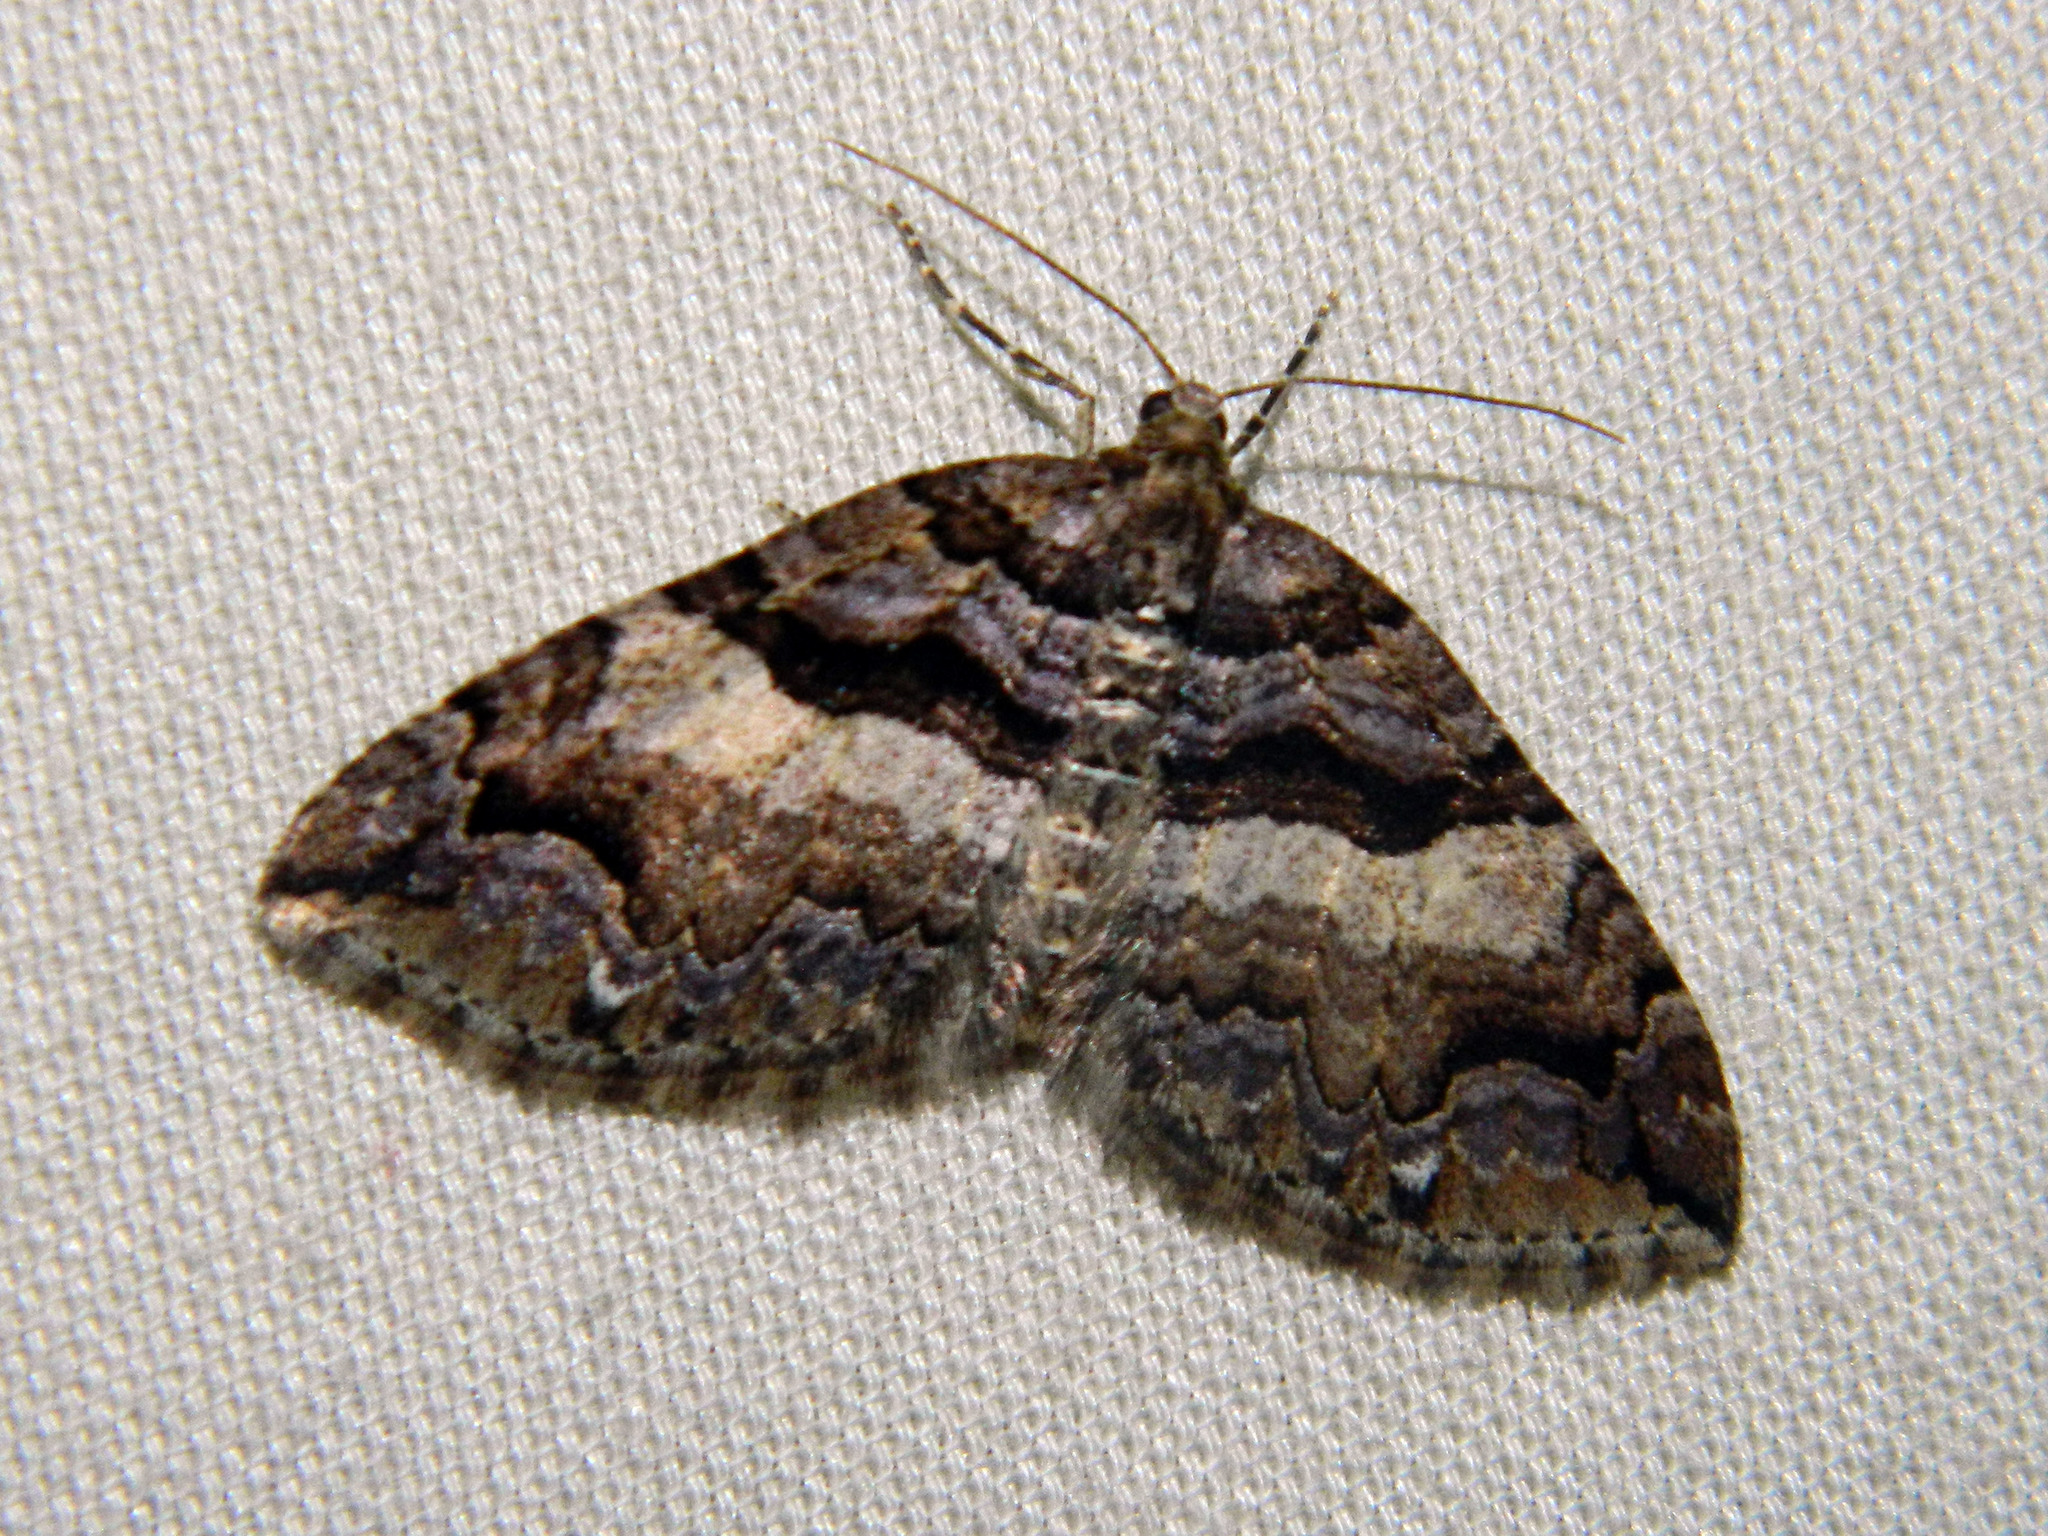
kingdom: Animalia
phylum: Arthropoda
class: Insecta
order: Lepidoptera
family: Geometridae
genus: Anticlea
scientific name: Anticlea vasiliata
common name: Variable carpet
